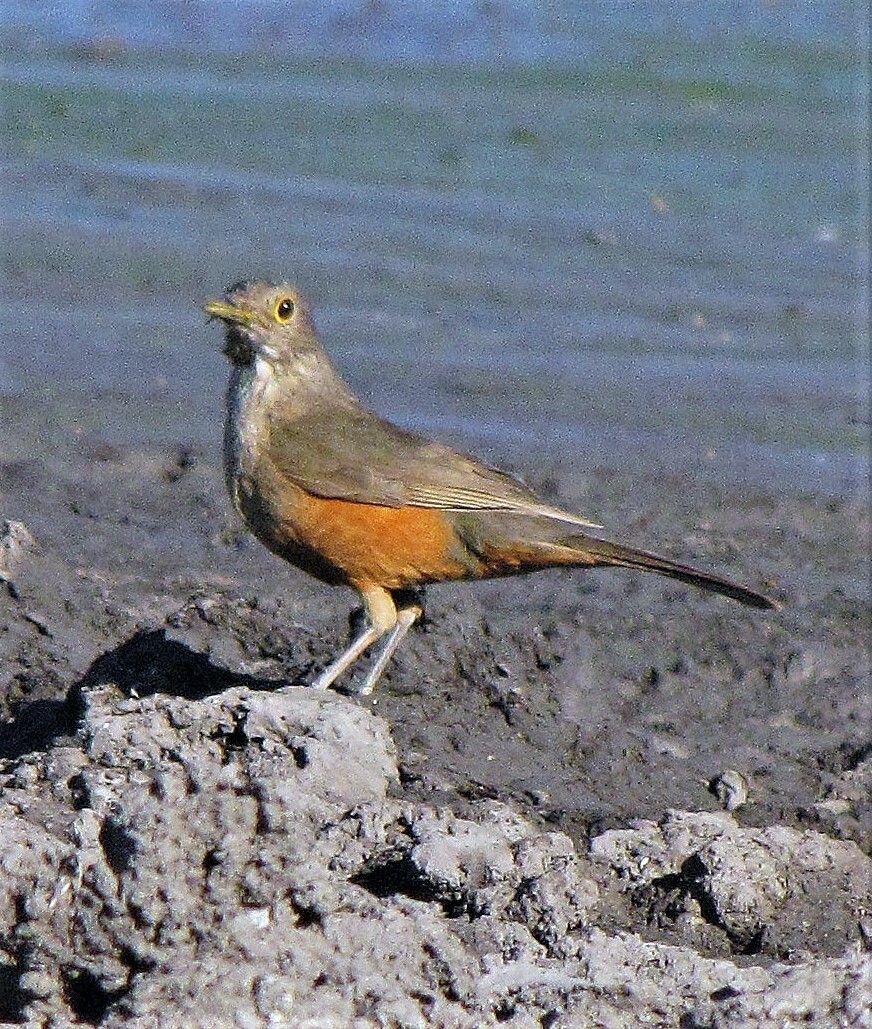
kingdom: Animalia
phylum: Chordata
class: Aves
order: Passeriformes
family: Turdidae
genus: Turdus
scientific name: Turdus rufiventris
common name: Rufous-bellied thrush
